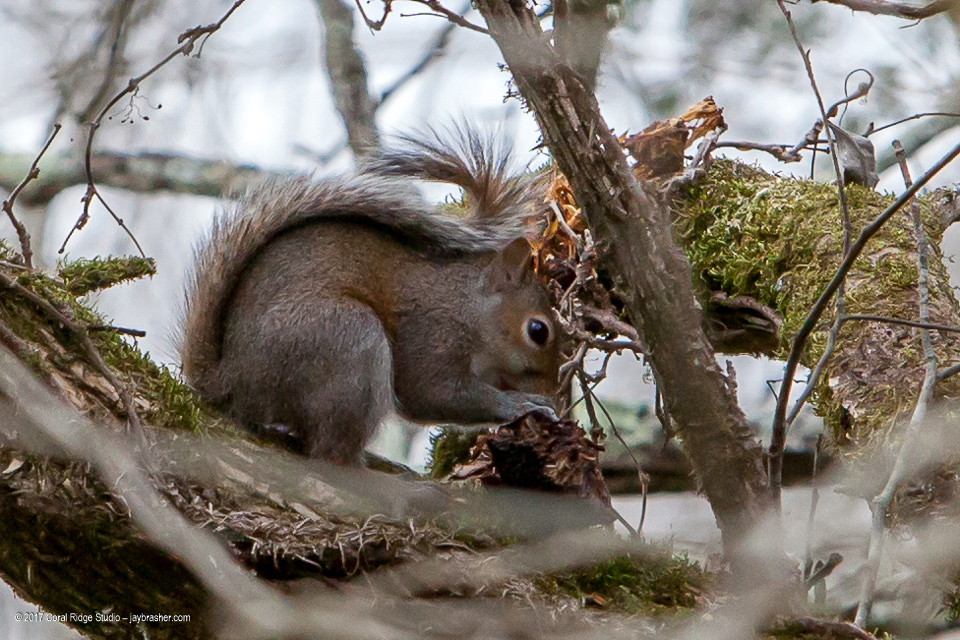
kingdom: Animalia
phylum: Chordata
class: Mammalia
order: Rodentia
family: Sciuridae
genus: Sciurus
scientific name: Sciurus carolinensis
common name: Eastern gray squirrel
